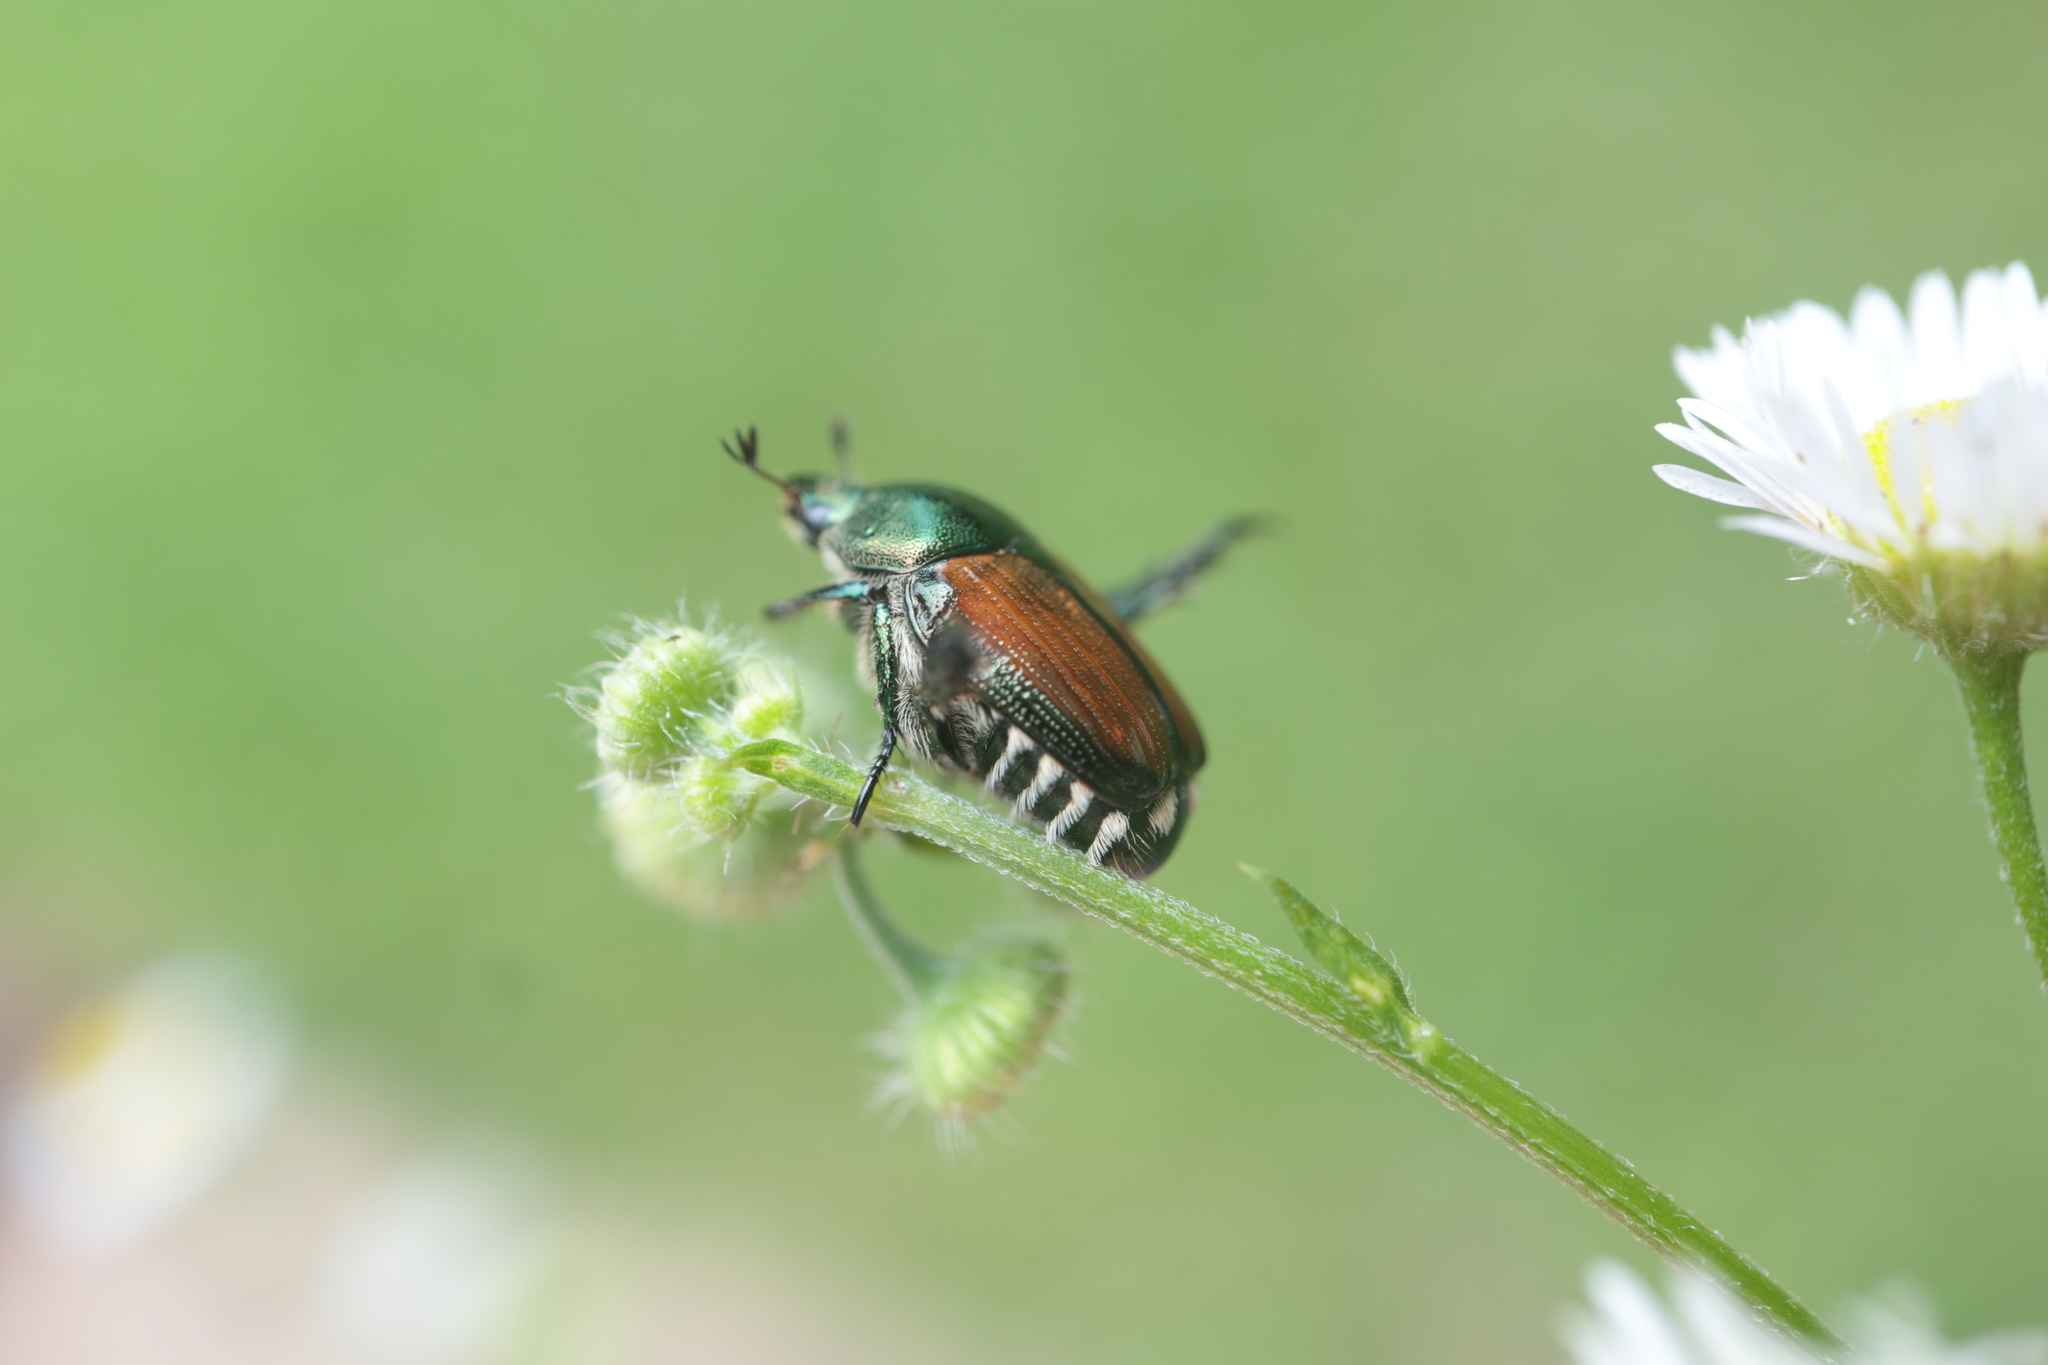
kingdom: Animalia
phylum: Arthropoda
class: Insecta
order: Coleoptera
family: Scarabaeidae
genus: Popillia
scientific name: Popillia japonica
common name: Japanese beetle
